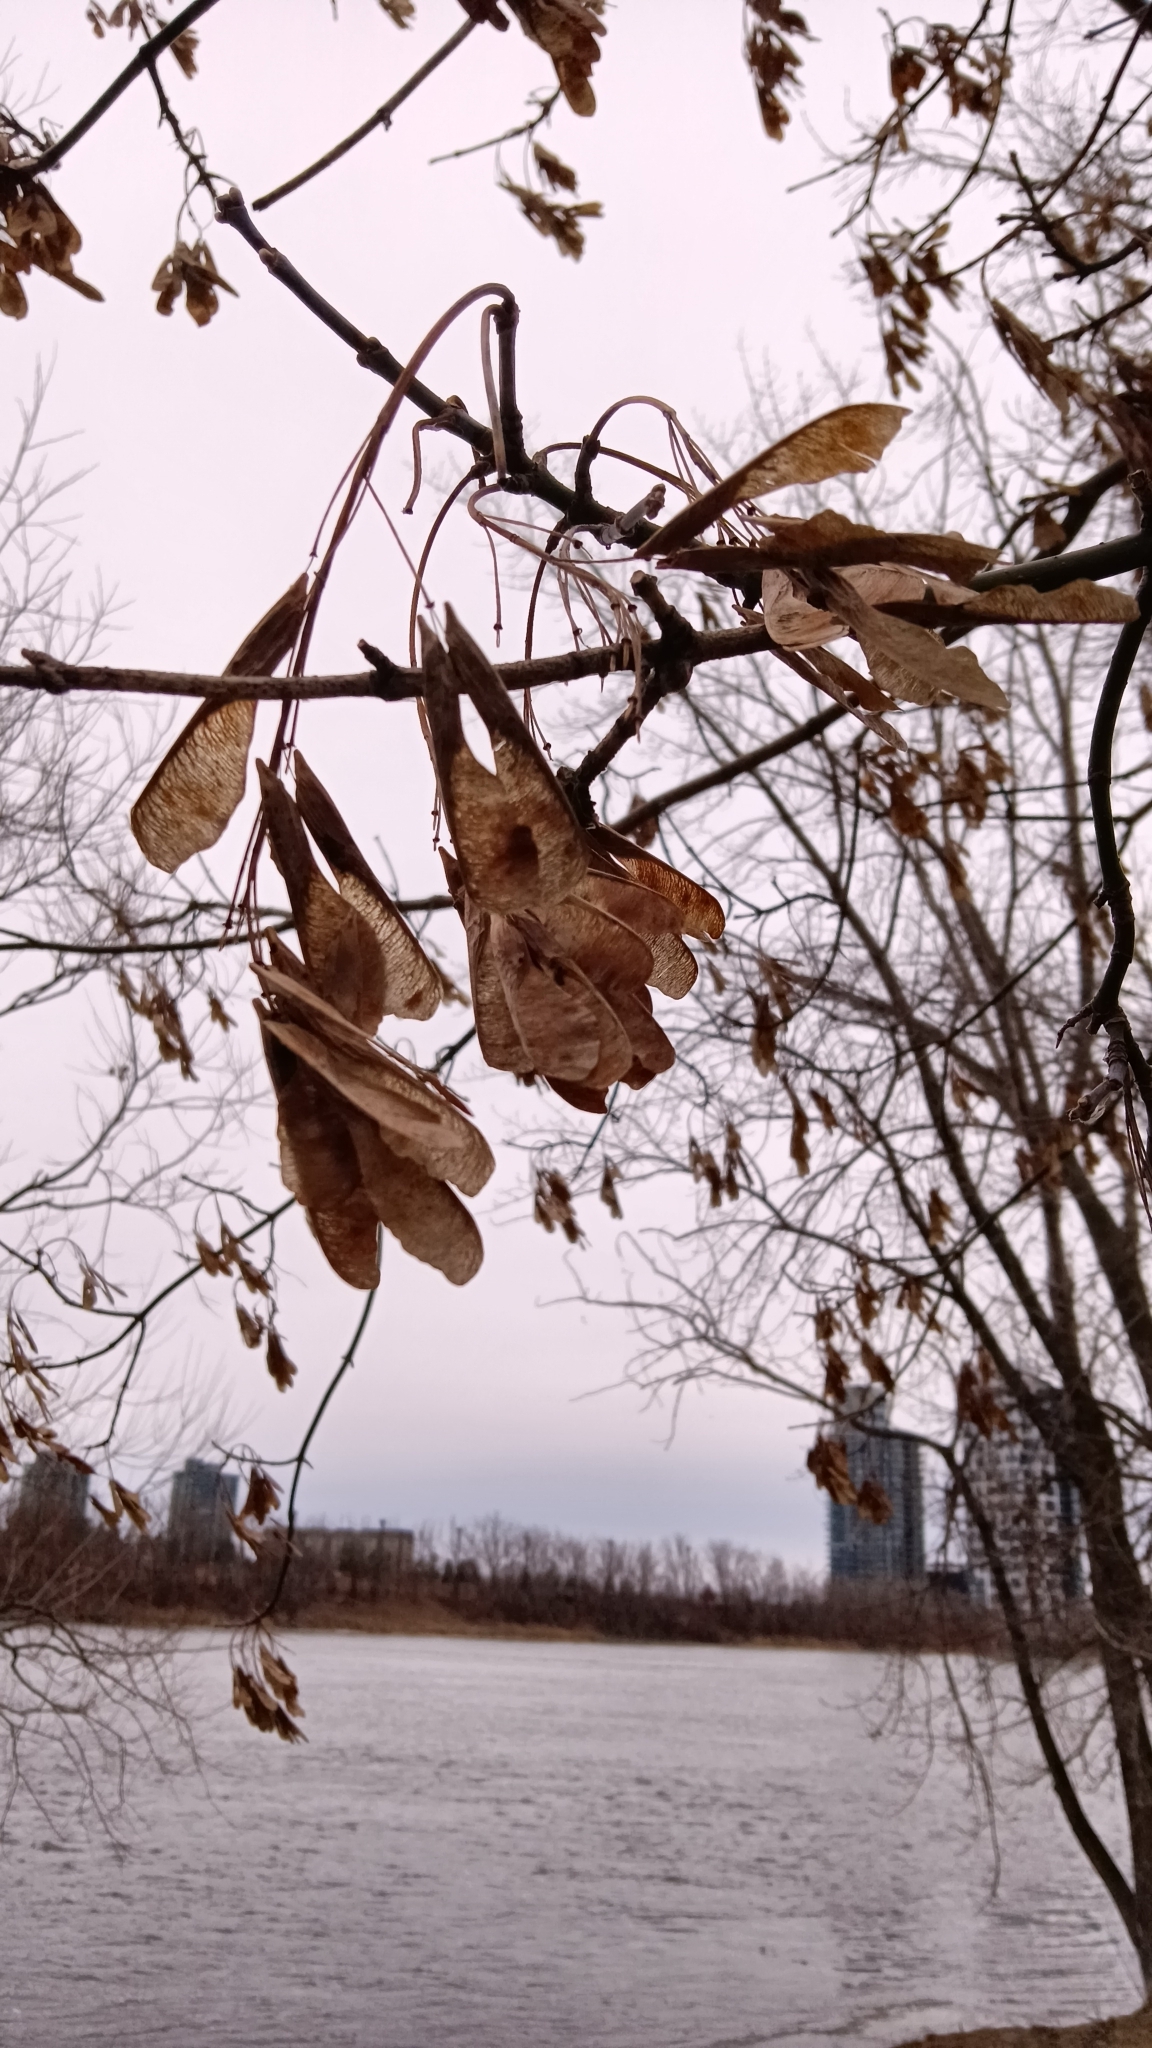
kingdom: Plantae
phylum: Tracheophyta
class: Magnoliopsida
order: Sapindales
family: Sapindaceae
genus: Acer
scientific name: Acer negundo
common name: Ashleaf maple
